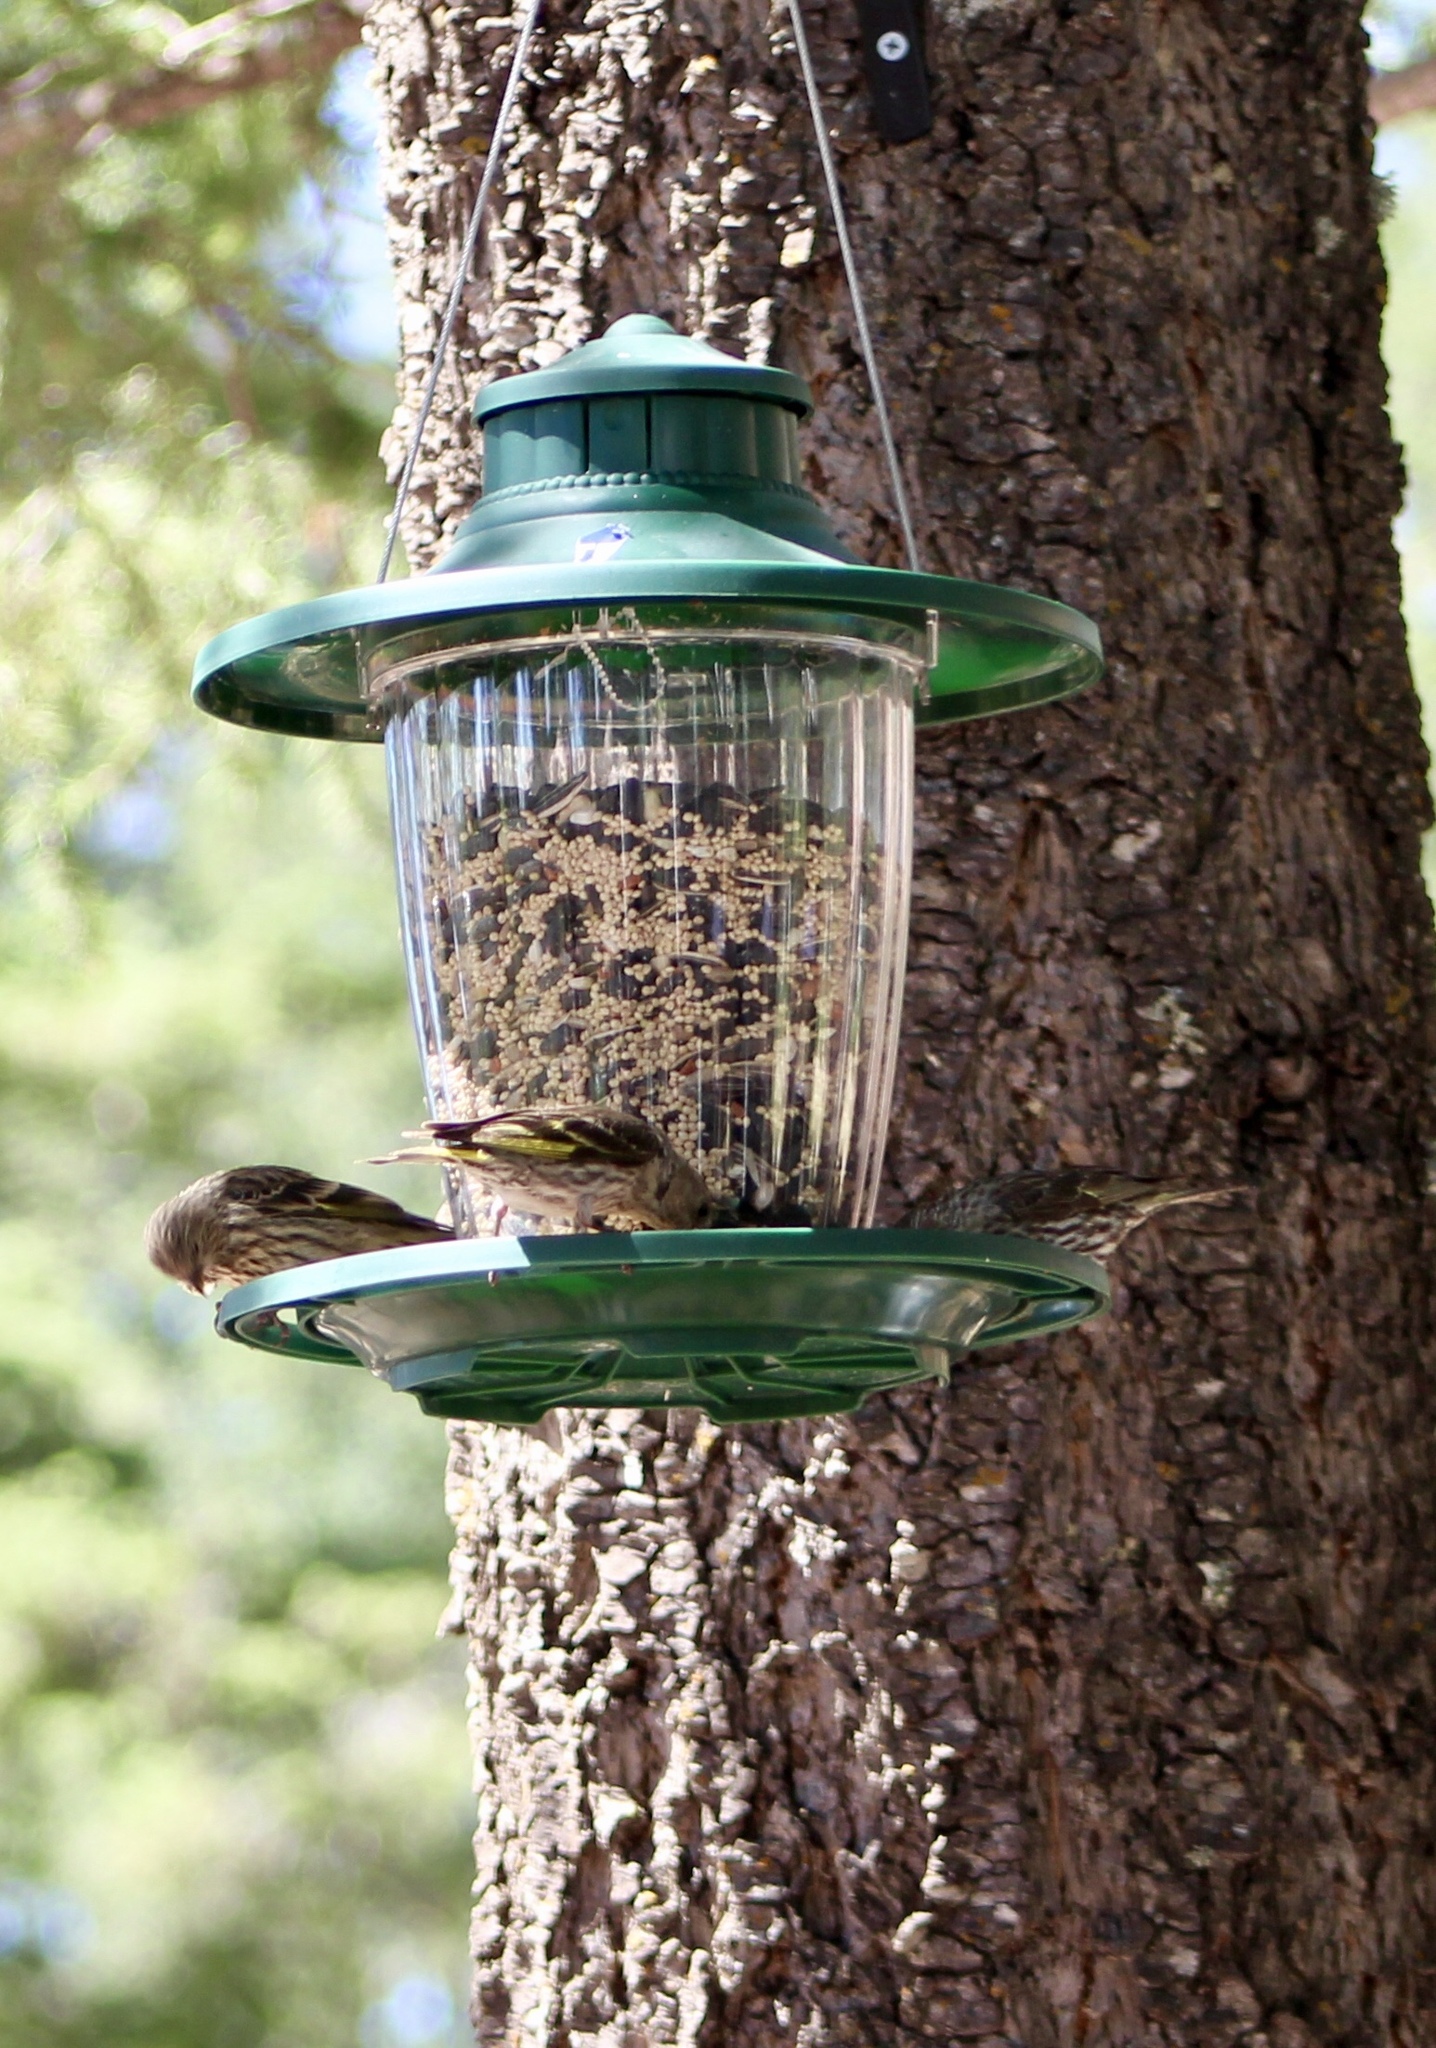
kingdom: Animalia
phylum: Chordata
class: Aves
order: Passeriformes
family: Fringillidae
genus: Spinus
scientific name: Spinus pinus
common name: Pine siskin
